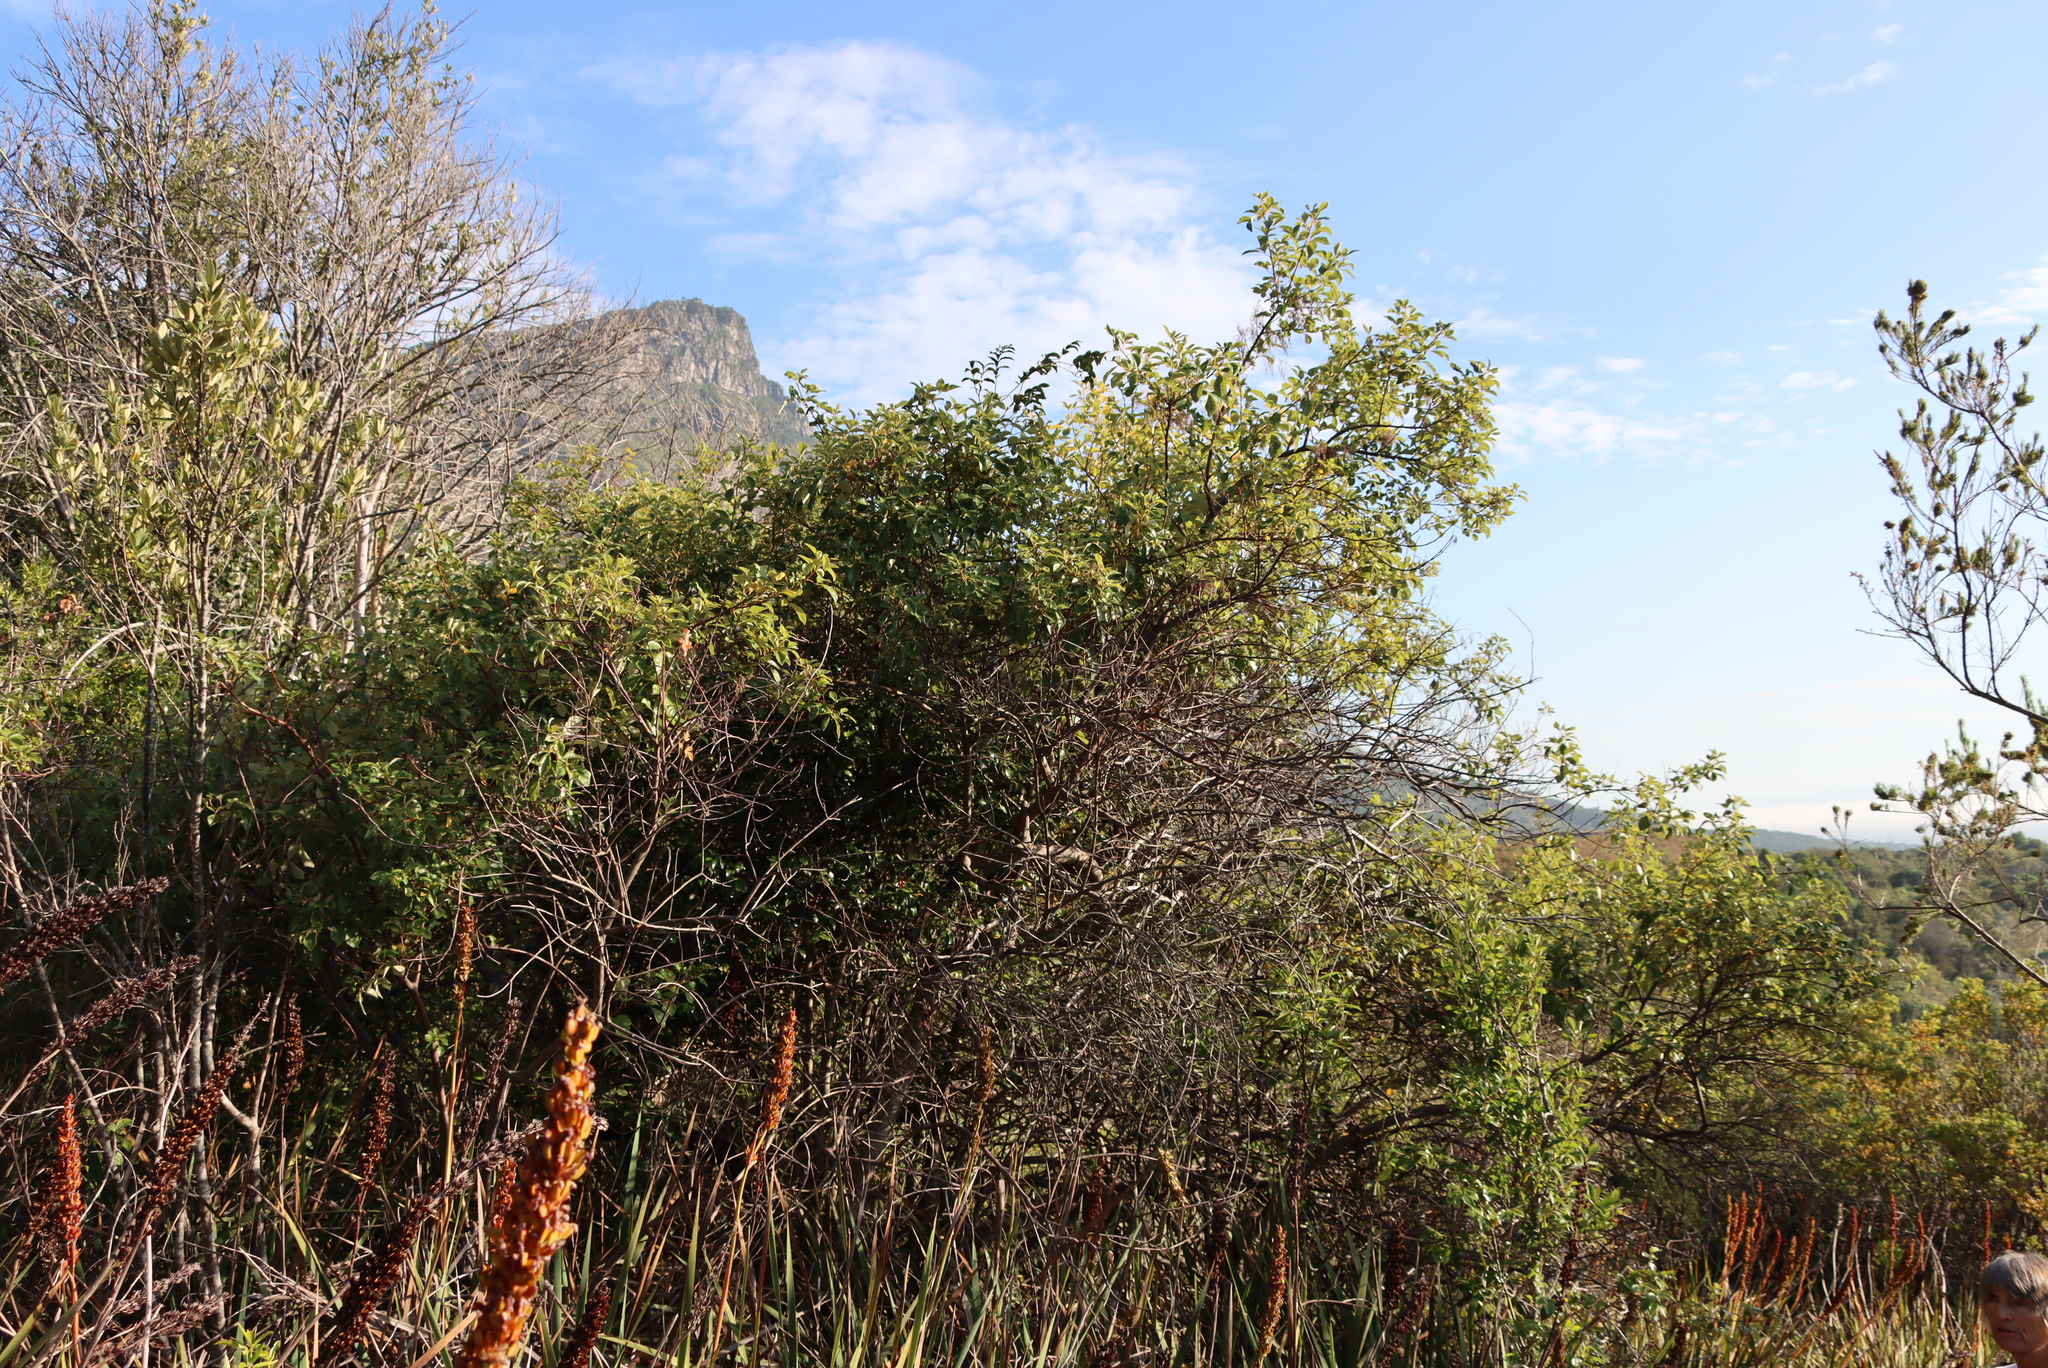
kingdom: Plantae
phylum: Tracheophyta
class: Magnoliopsida
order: Sapindales
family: Anacardiaceae
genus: Searsia
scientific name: Searsia tomentosa
